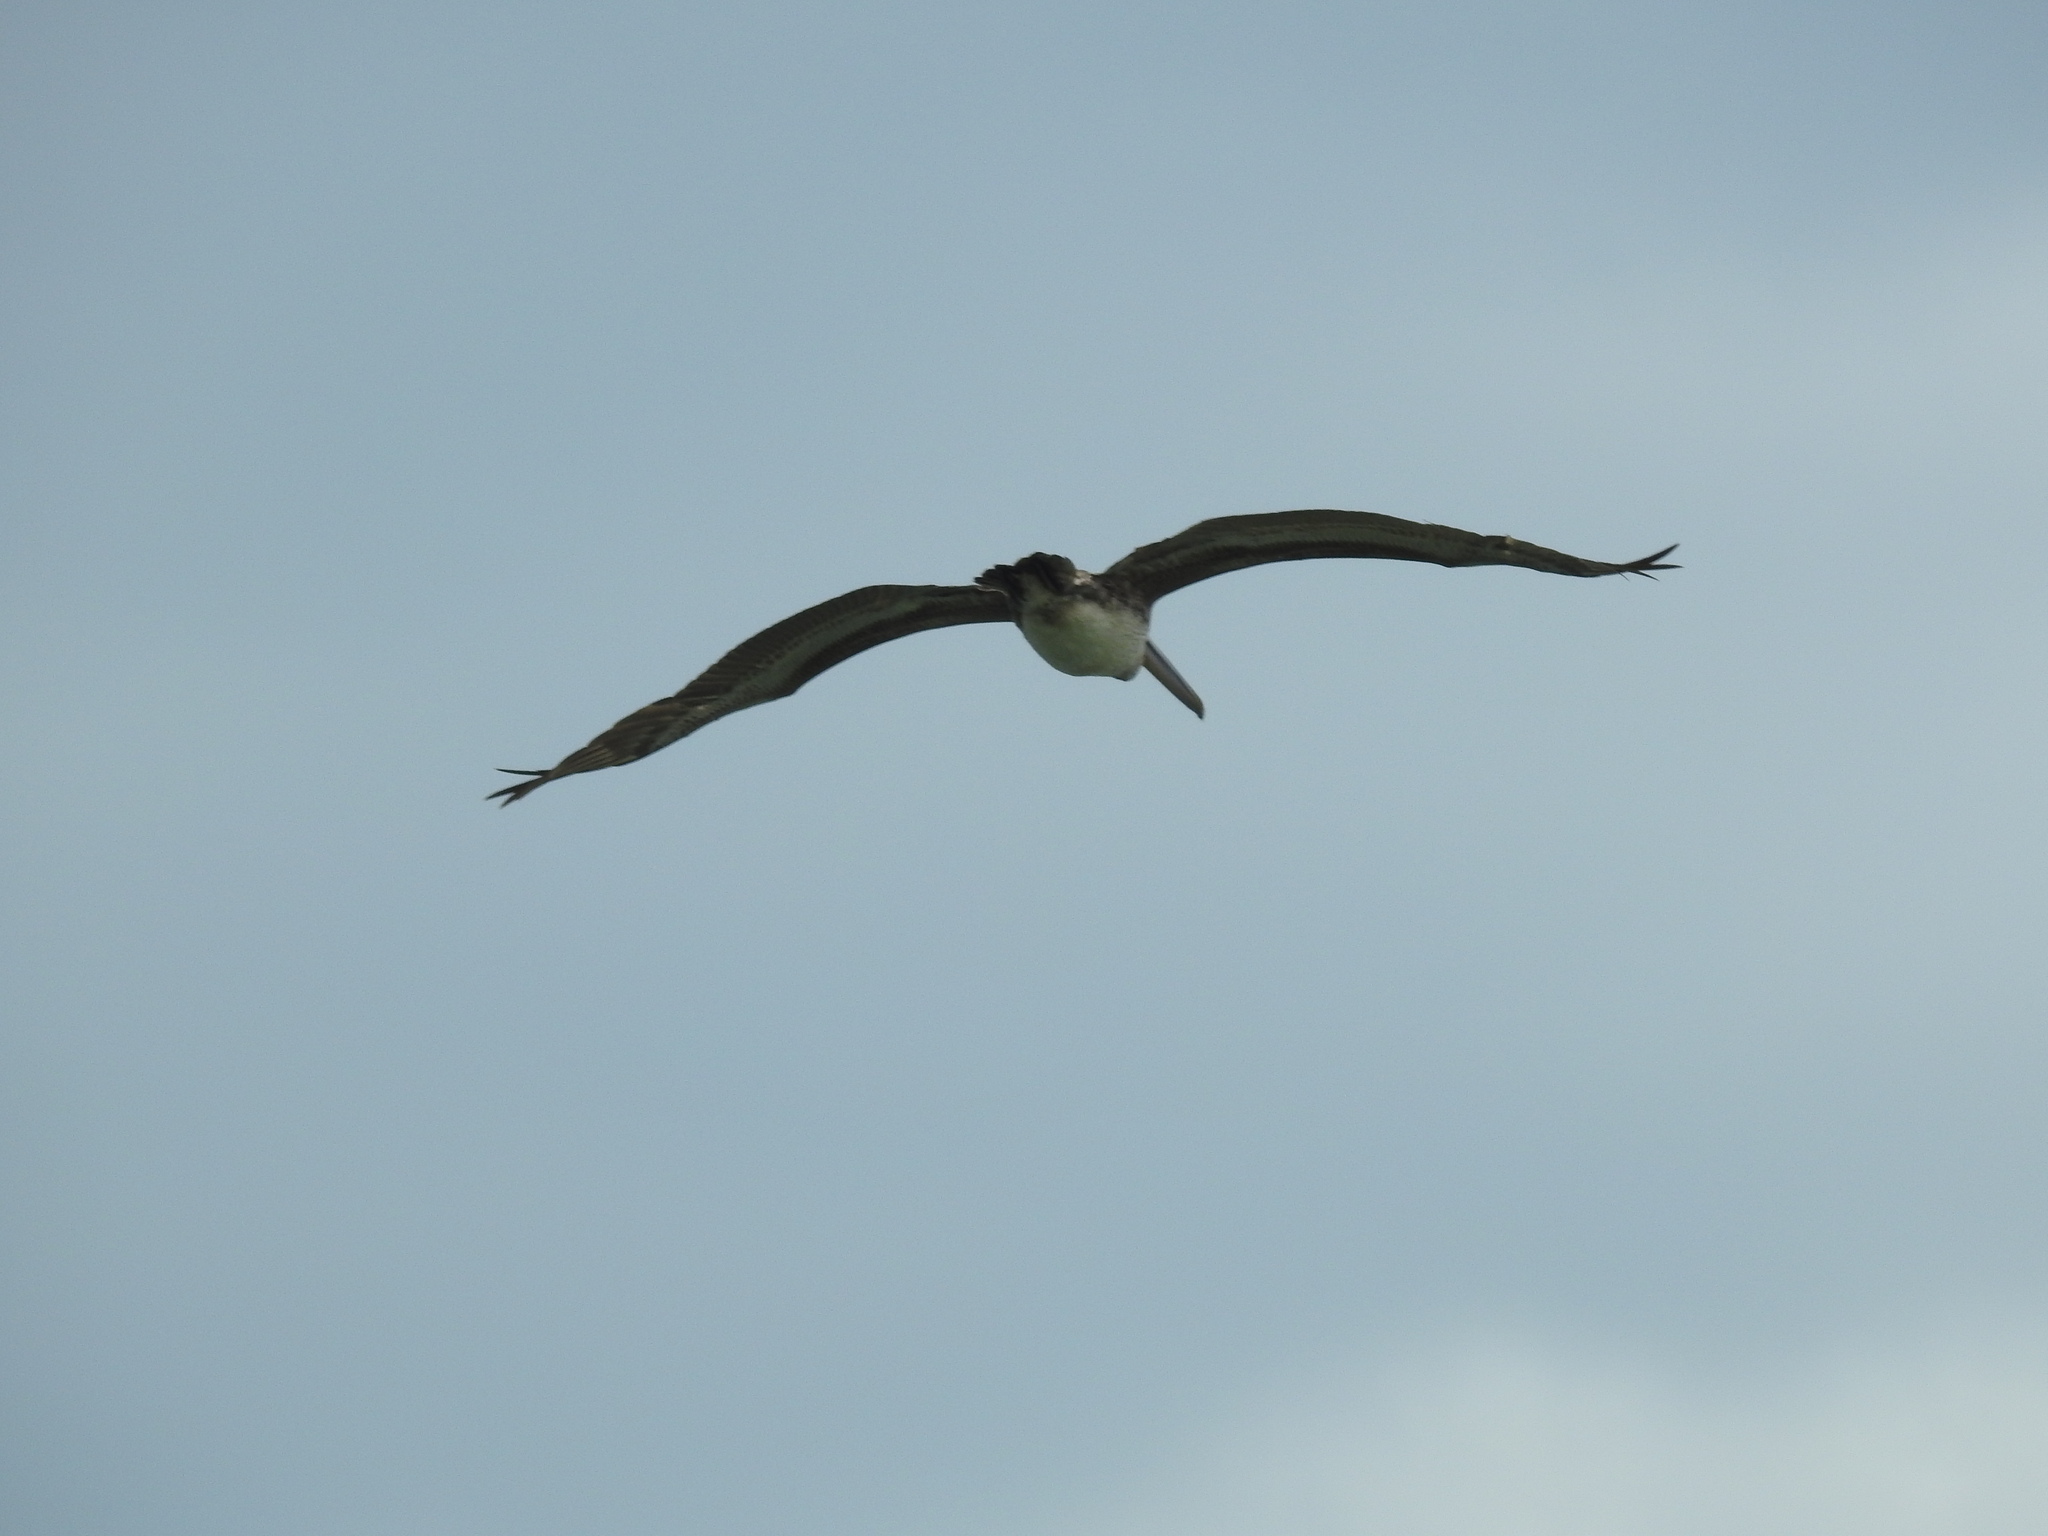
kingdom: Animalia
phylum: Chordata
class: Aves
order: Pelecaniformes
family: Pelecanidae
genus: Pelecanus
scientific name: Pelecanus occidentalis
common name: Brown pelican
